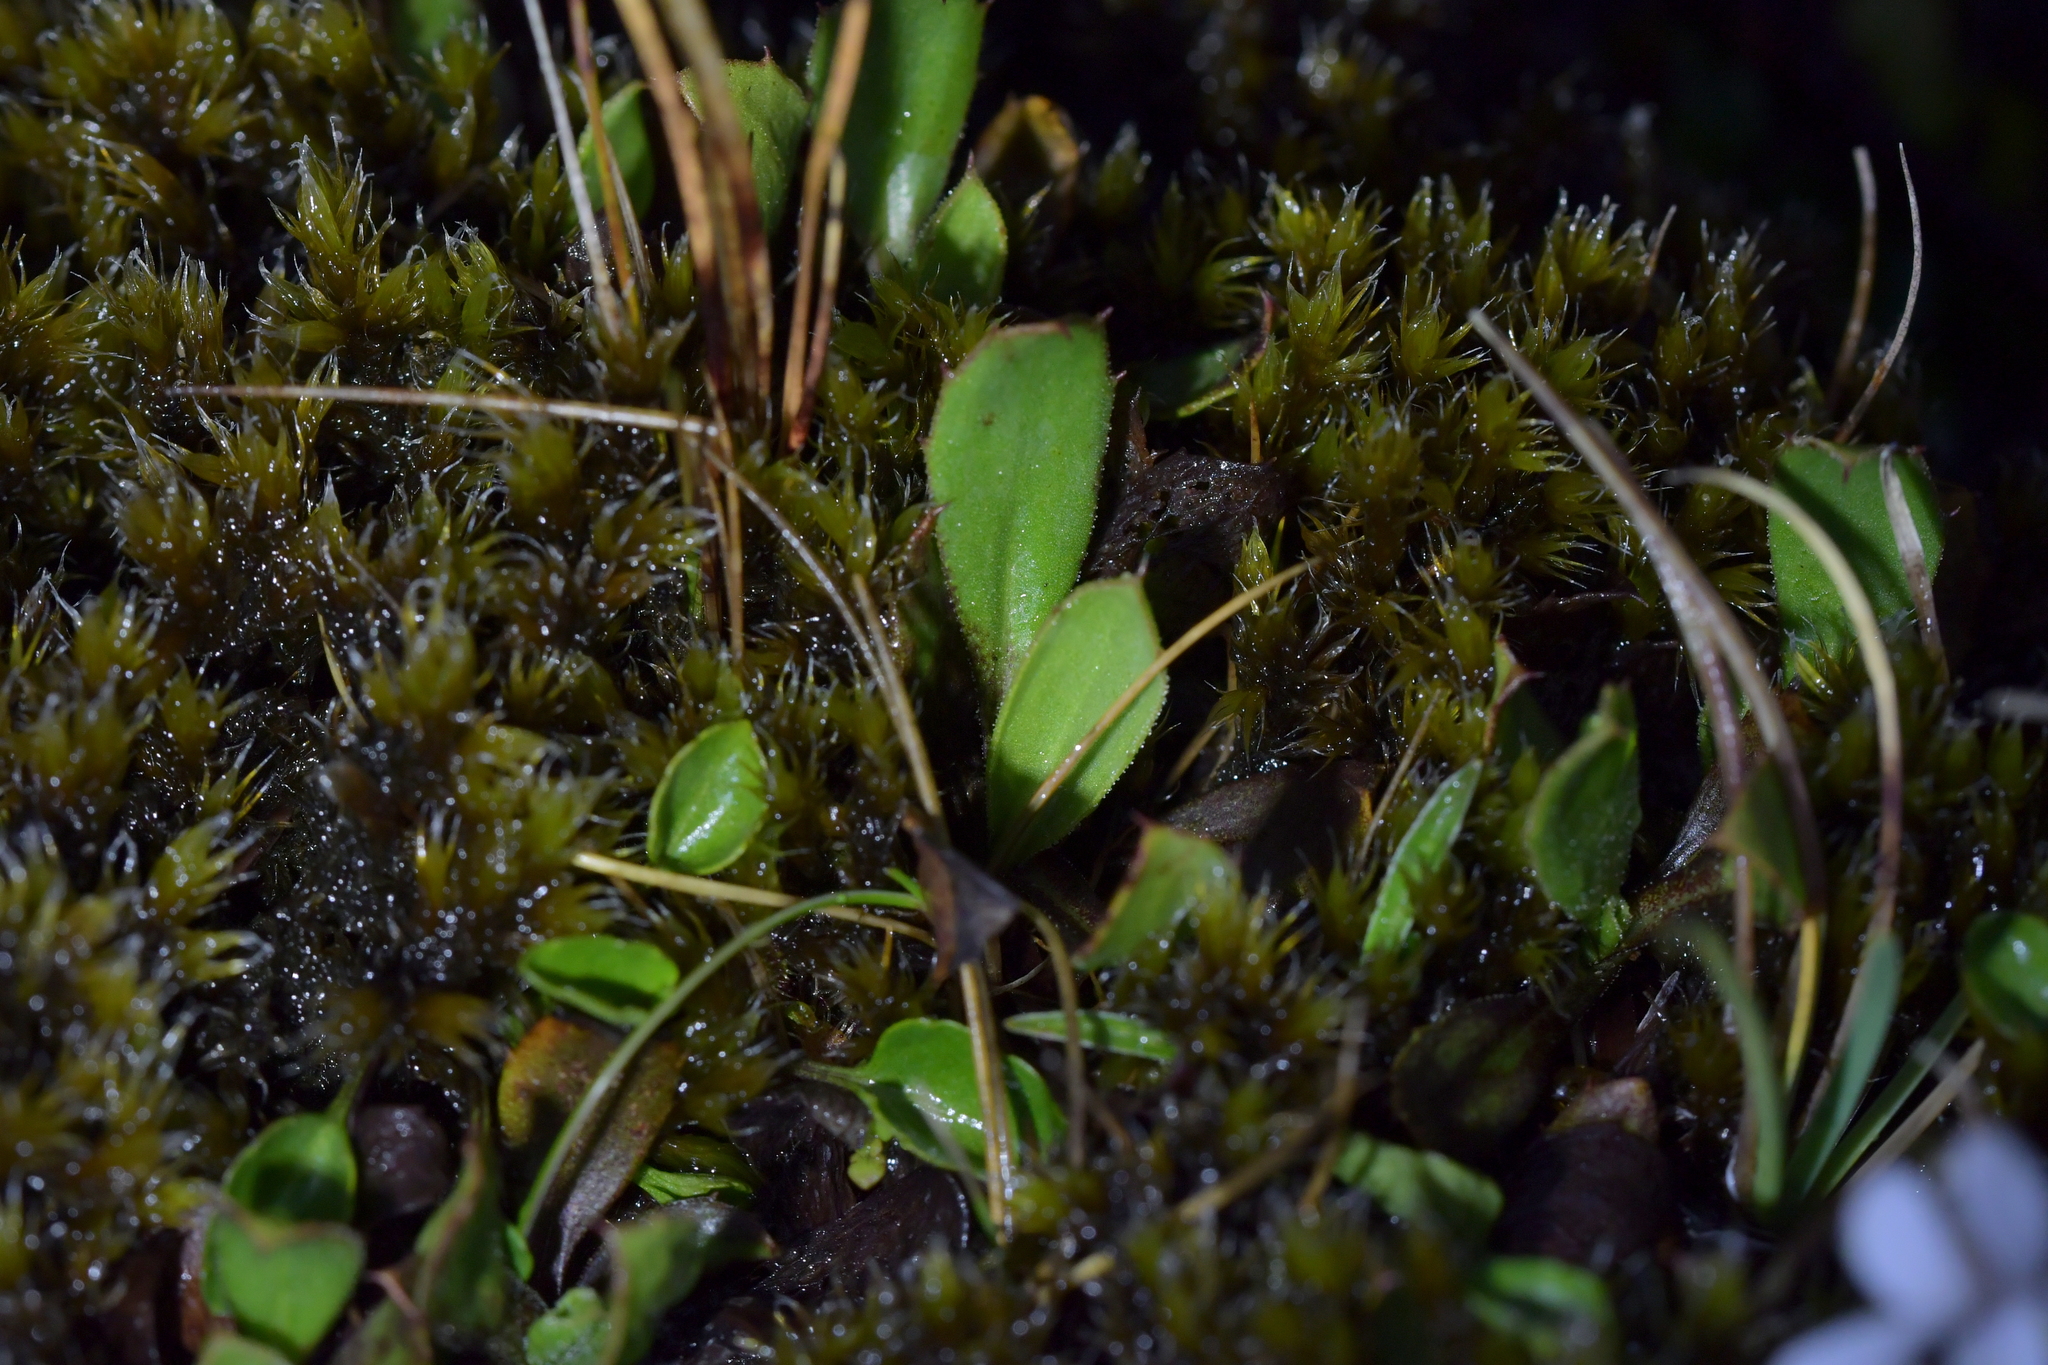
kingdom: Plantae
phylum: Tracheophyta
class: Magnoliopsida
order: Malpighiales
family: Violaceae
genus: Viola
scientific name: Viola cunninghamii
